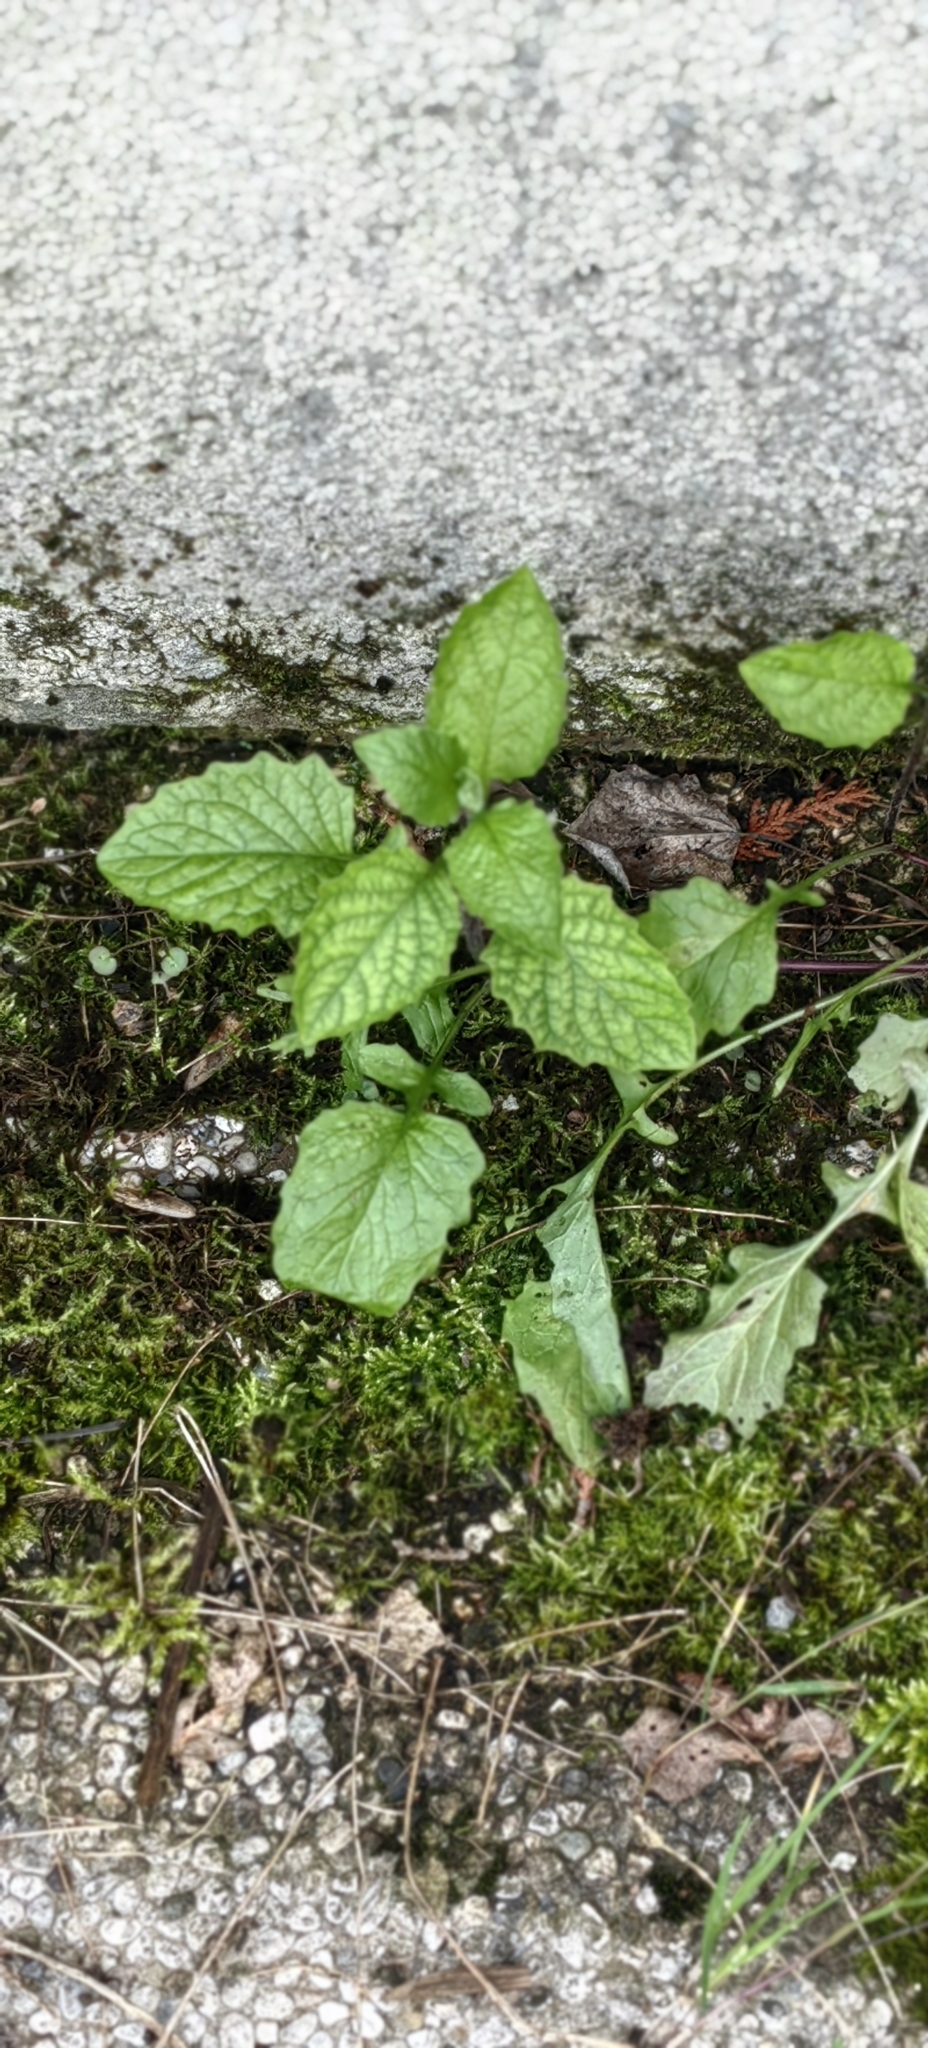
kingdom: Plantae
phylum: Tracheophyta
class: Magnoliopsida
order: Asterales
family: Asteraceae
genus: Lapsana
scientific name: Lapsana communis
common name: Nipplewort
